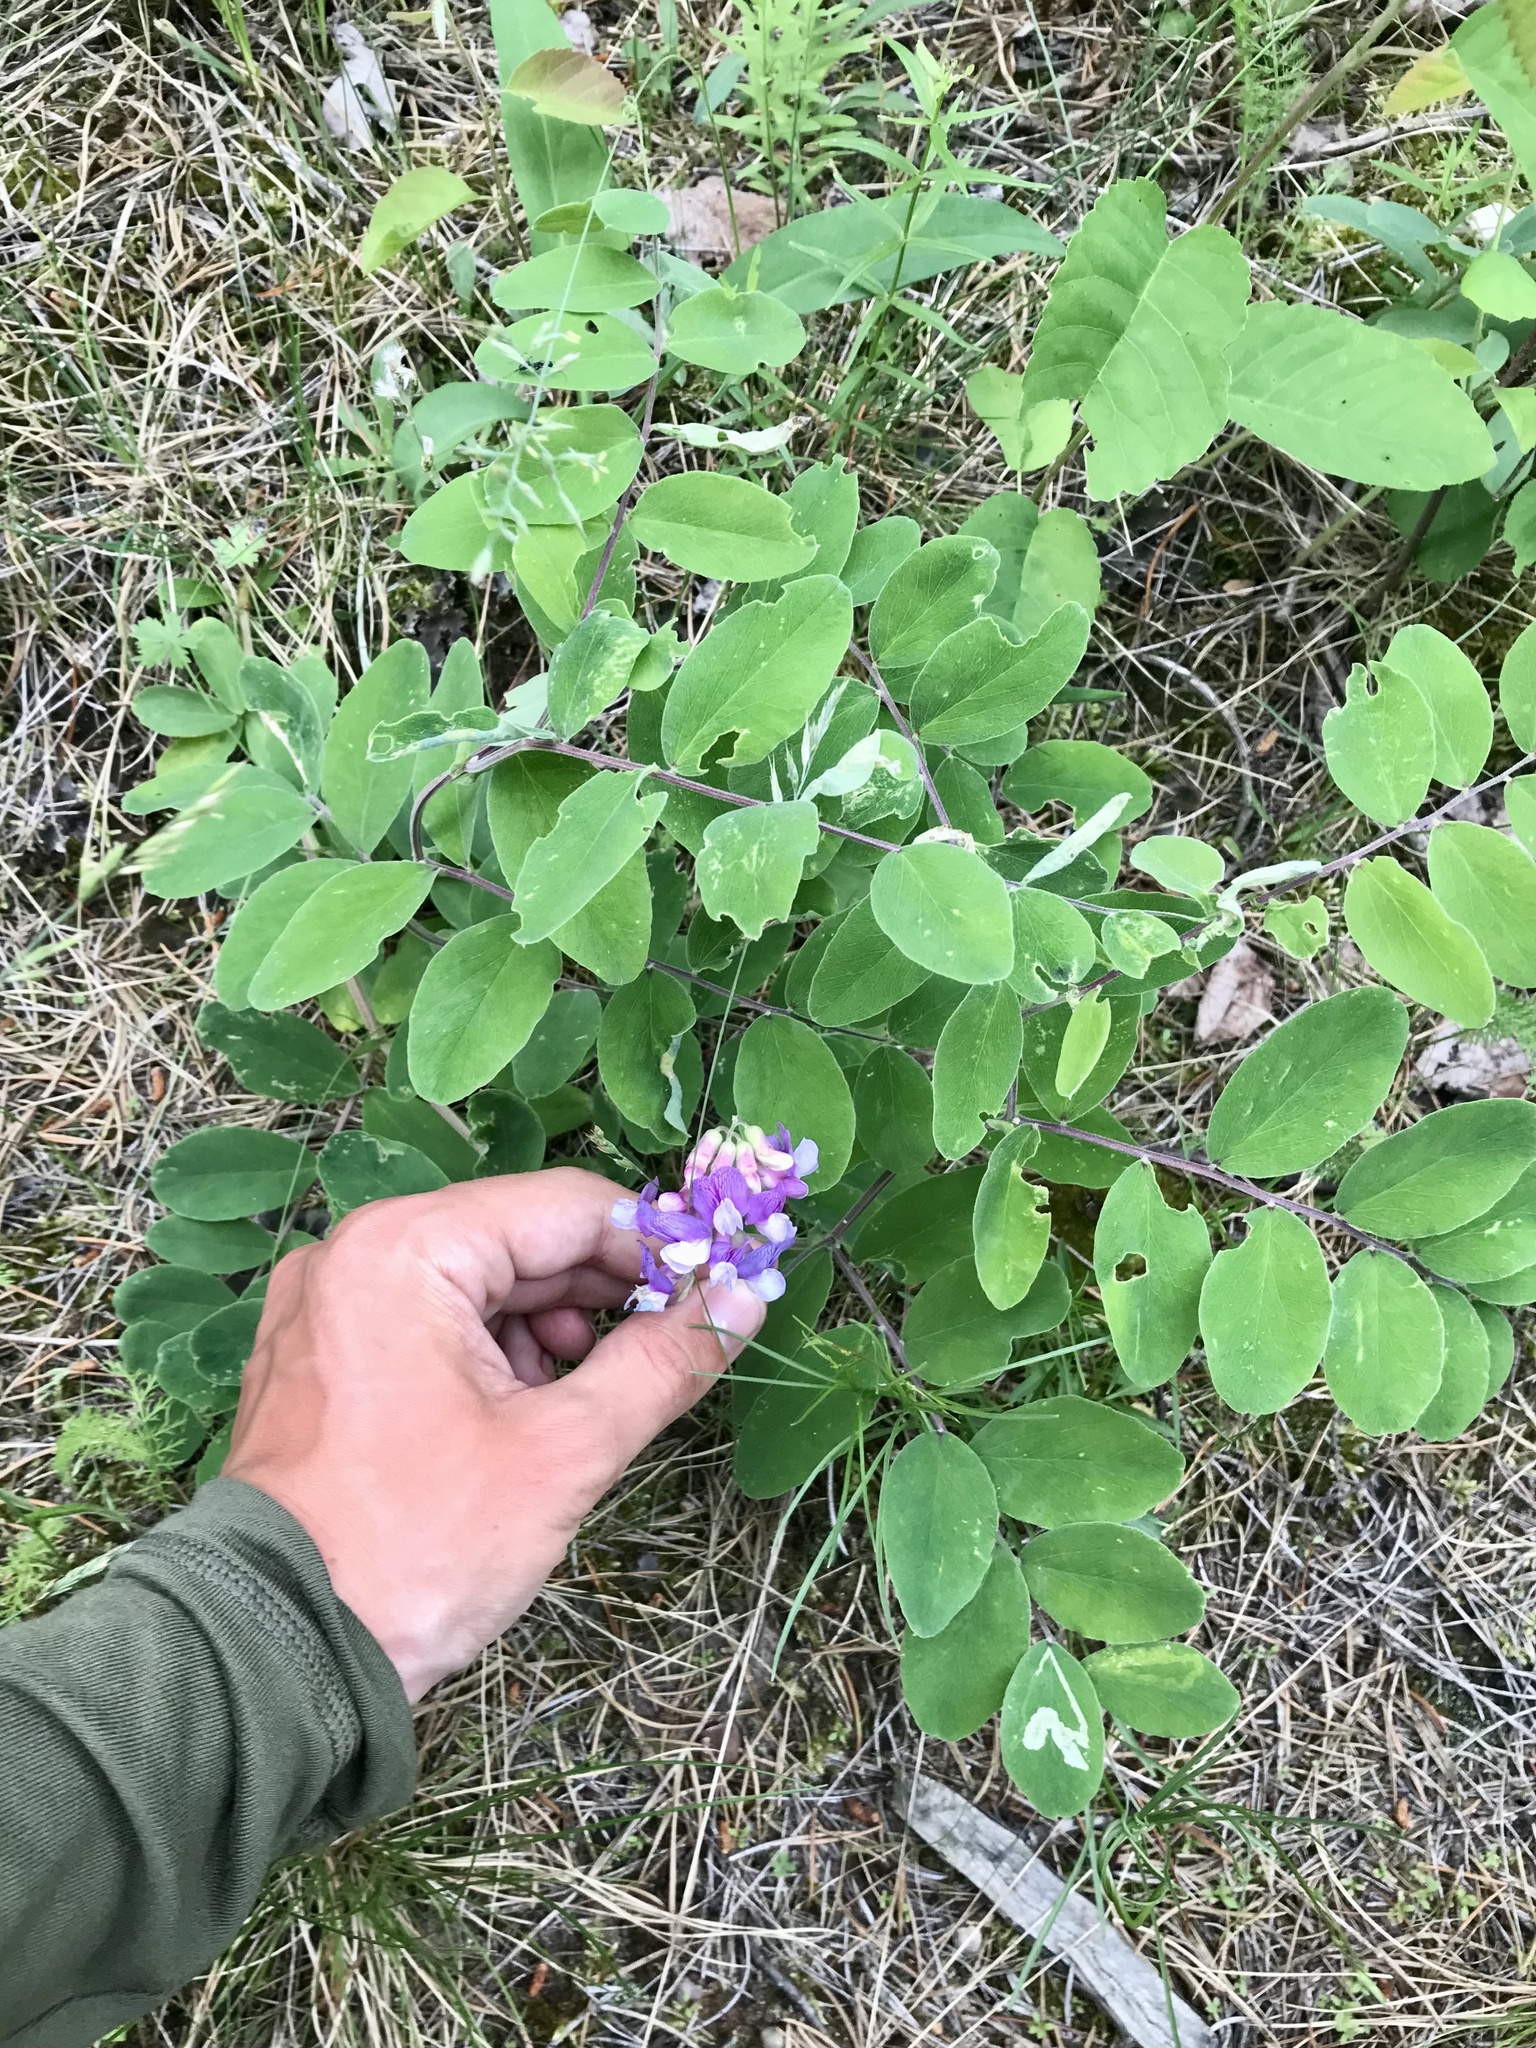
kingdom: Plantae
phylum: Tracheophyta
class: Magnoliopsida
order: Fabales
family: Fabaceae
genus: Lathyrus
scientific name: Lathyrus venosus
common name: Forest-pea
